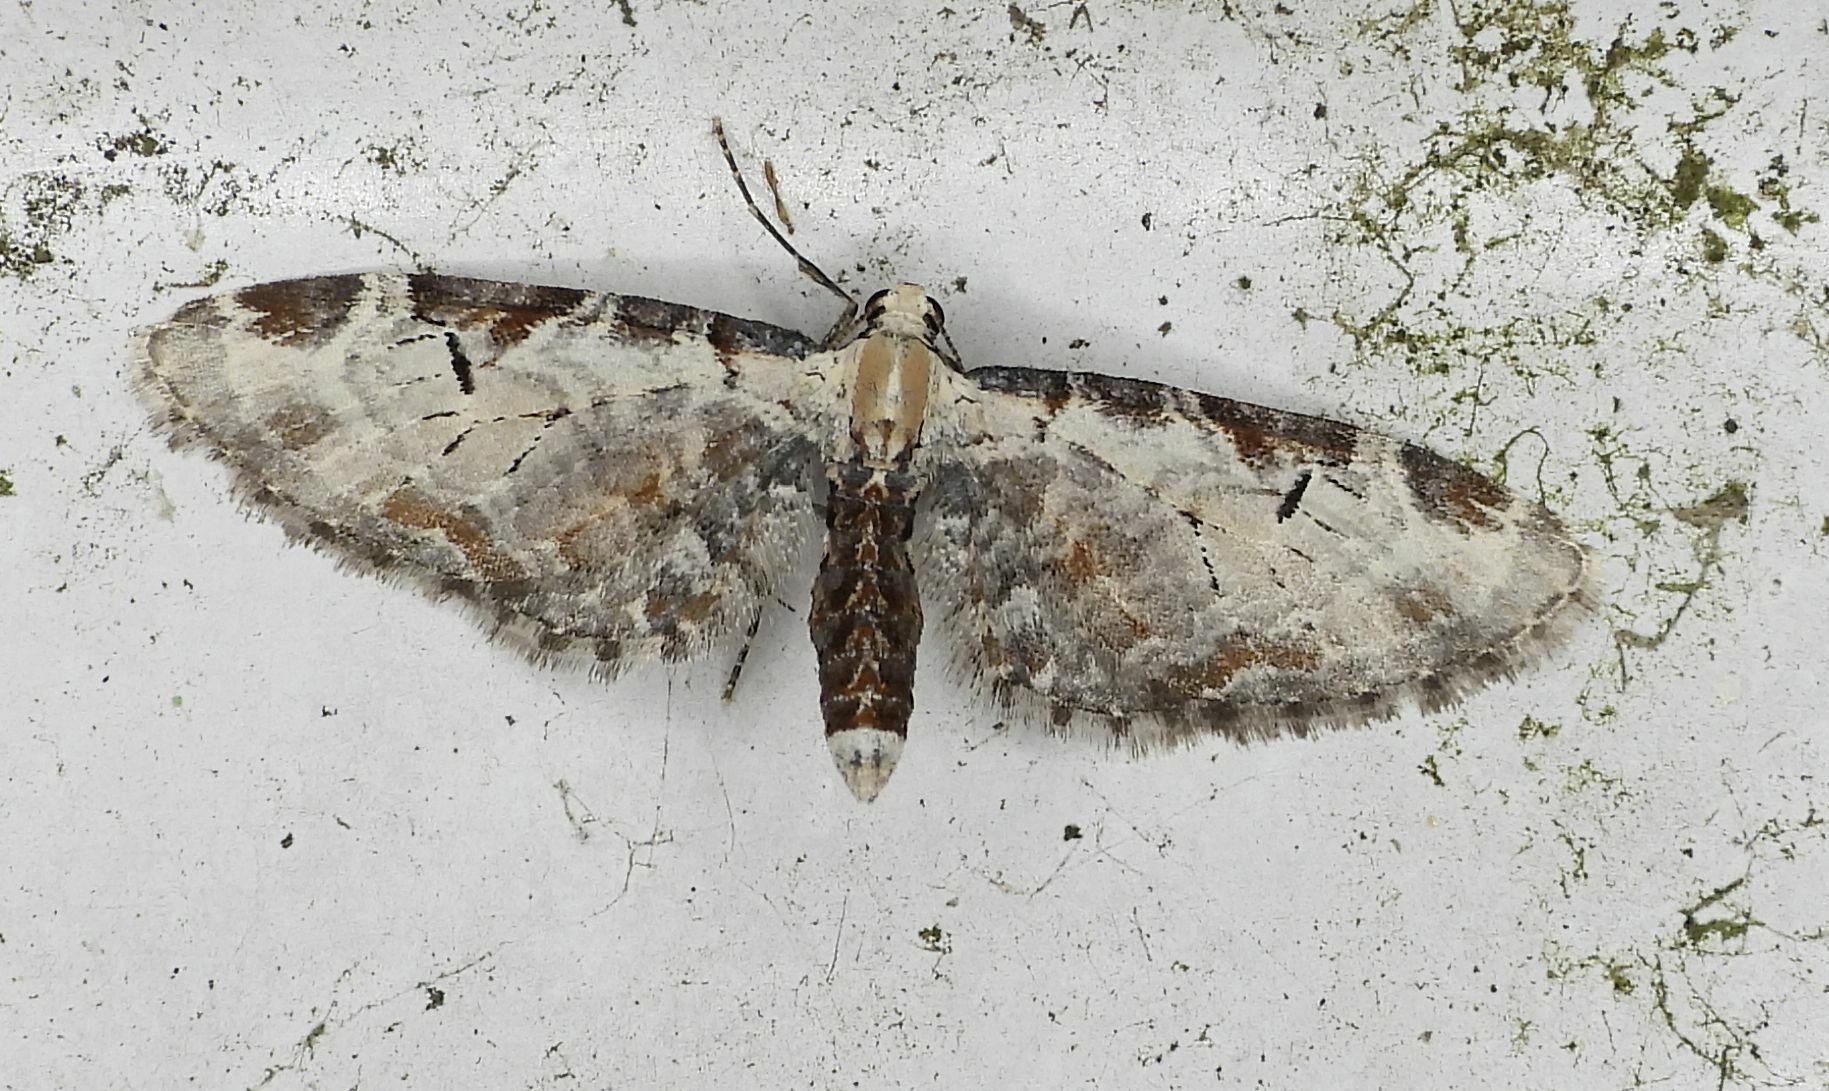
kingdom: Animalia
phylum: Arthropoda
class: Insecta
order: Lepidoptera
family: Geometridae
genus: Eupithecia
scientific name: Eupithecia ravocostaliata
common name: Great varigated pug
